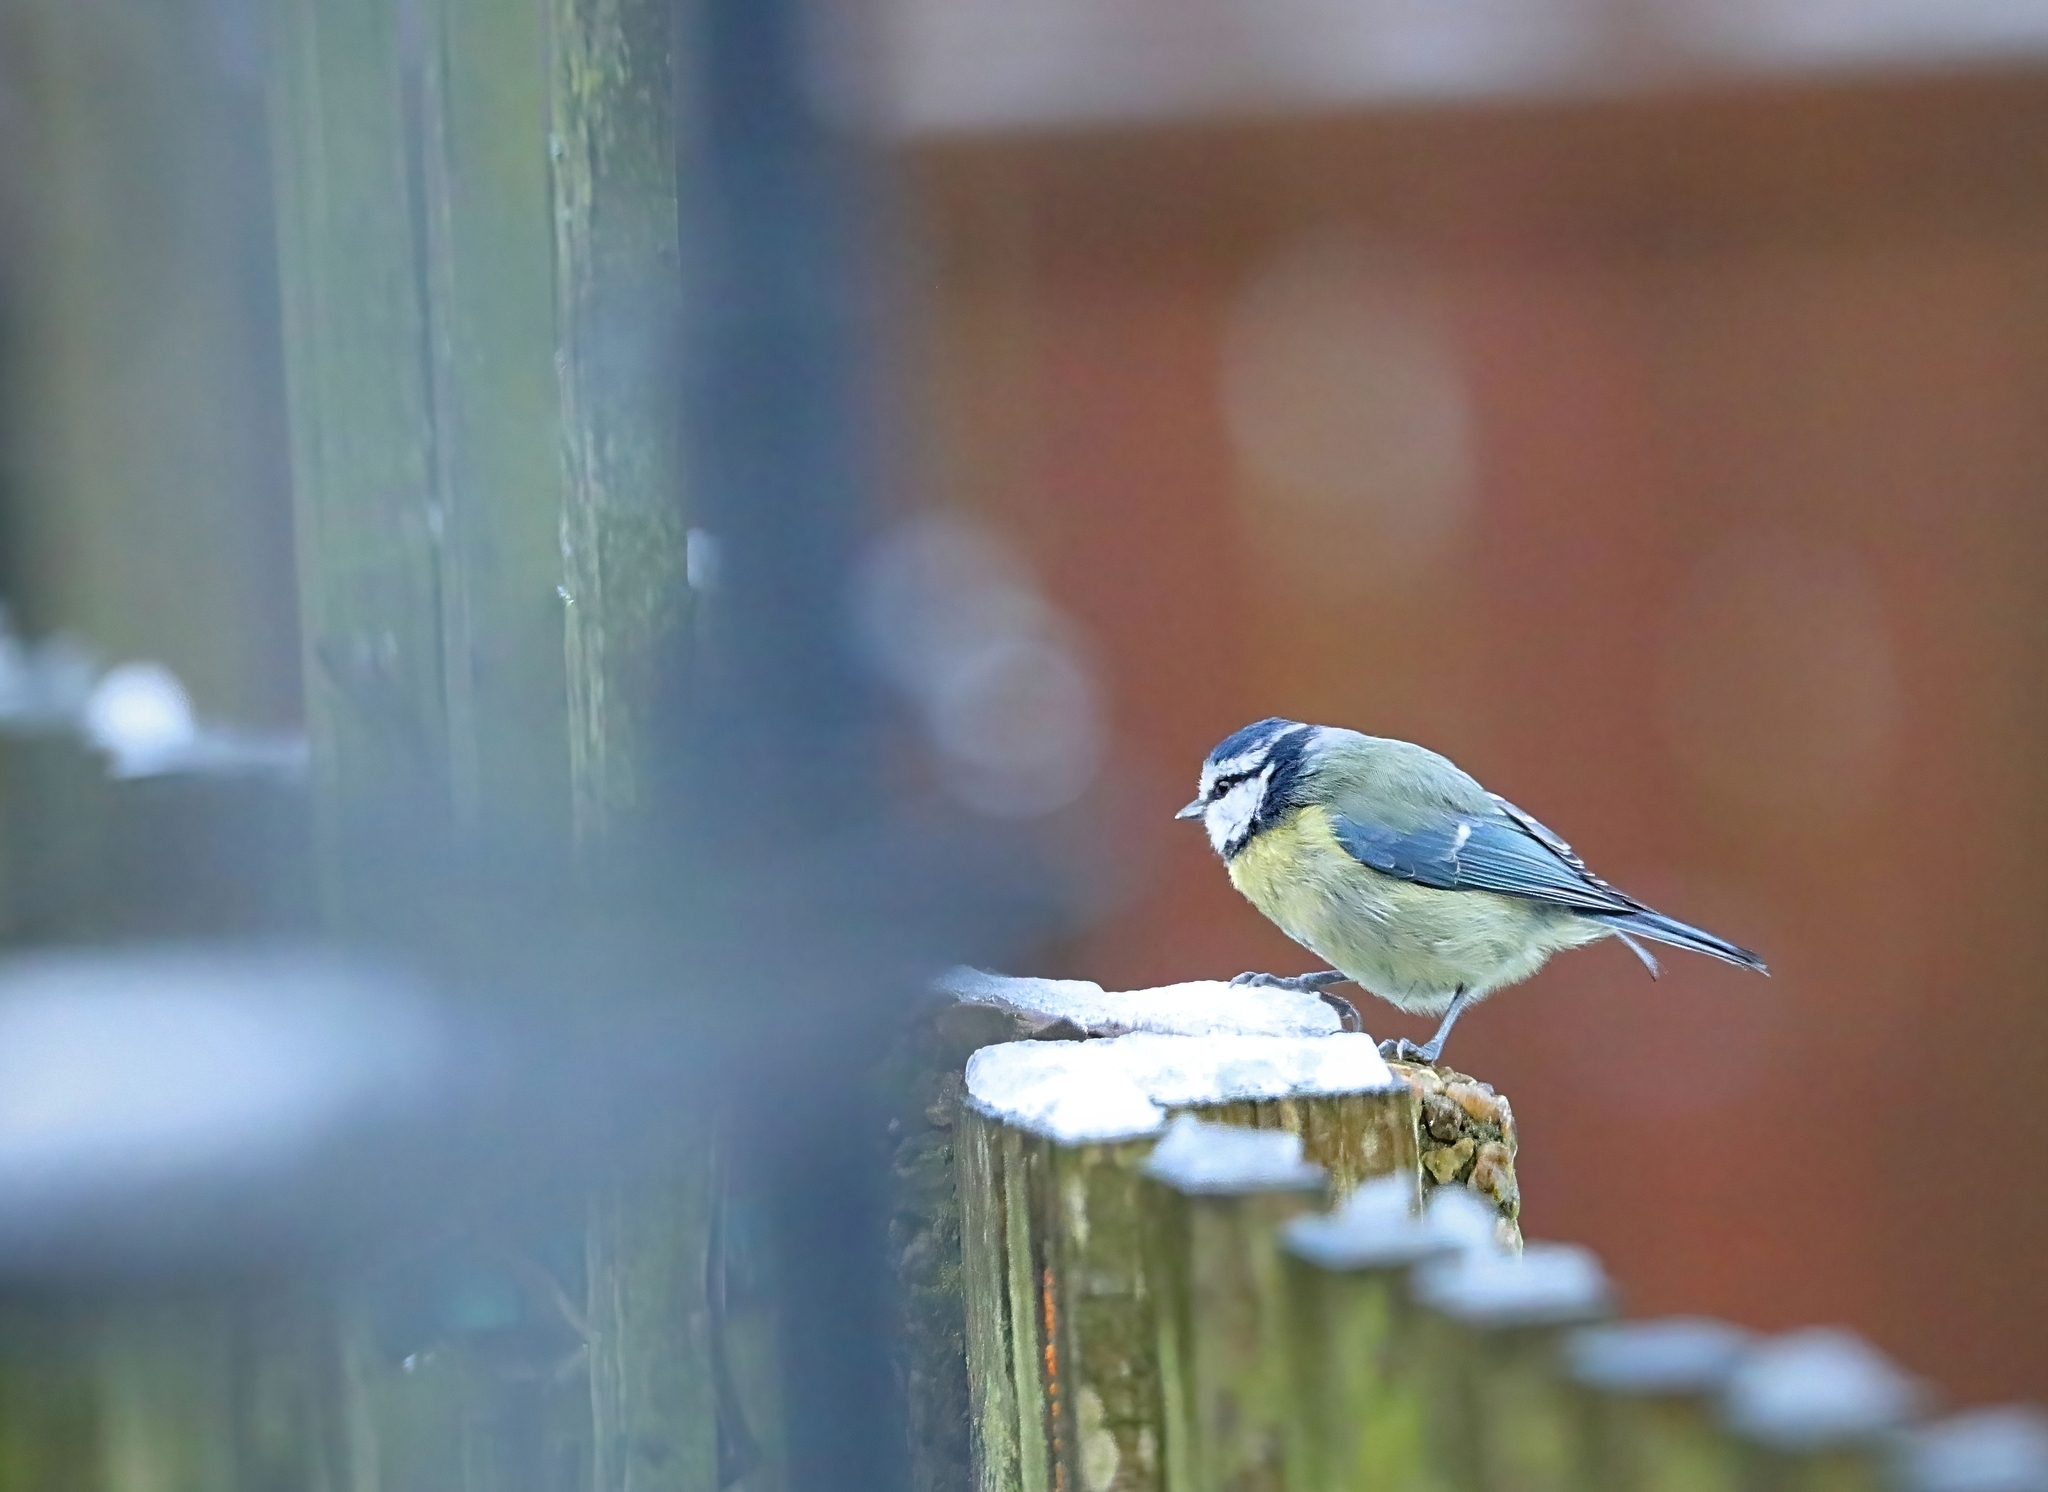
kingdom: Animalia
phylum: Chordata
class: Aves
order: Passeriformes
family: Paridae
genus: Cyanistes
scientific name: Cyanistes caeruleus
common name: Eurasian blue tit
